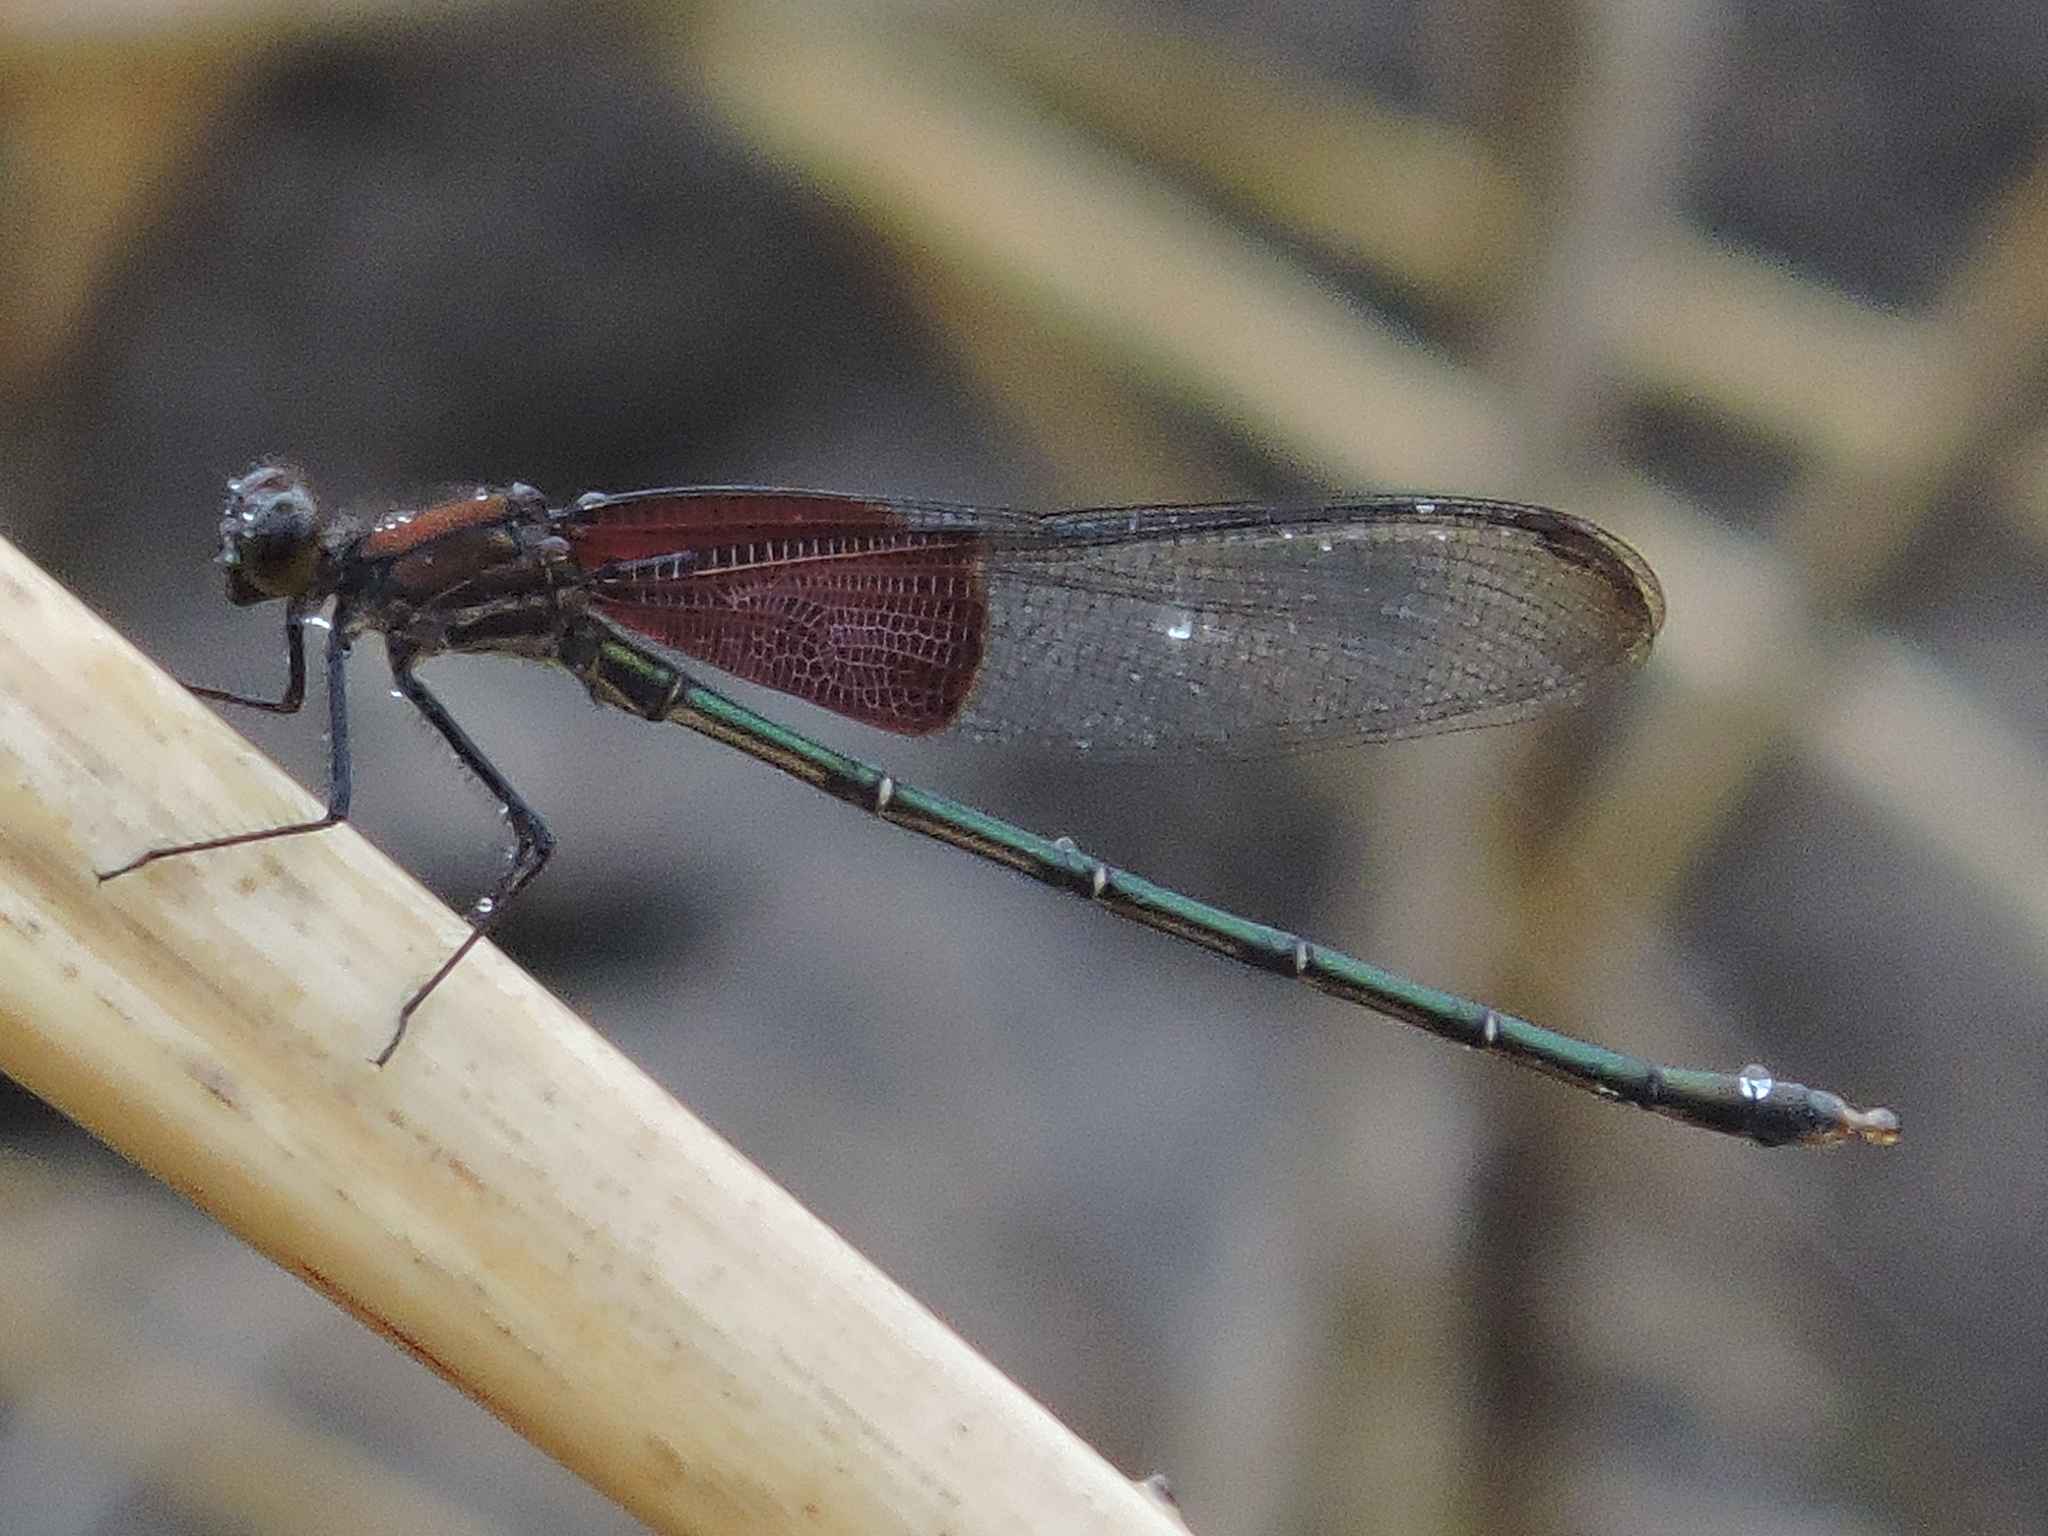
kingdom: Animalia
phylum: Arthropoda
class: Insecta
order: Odonata
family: Calopterygidae
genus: Hetaerina
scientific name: Hetaerina americana
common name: American rubyspot
